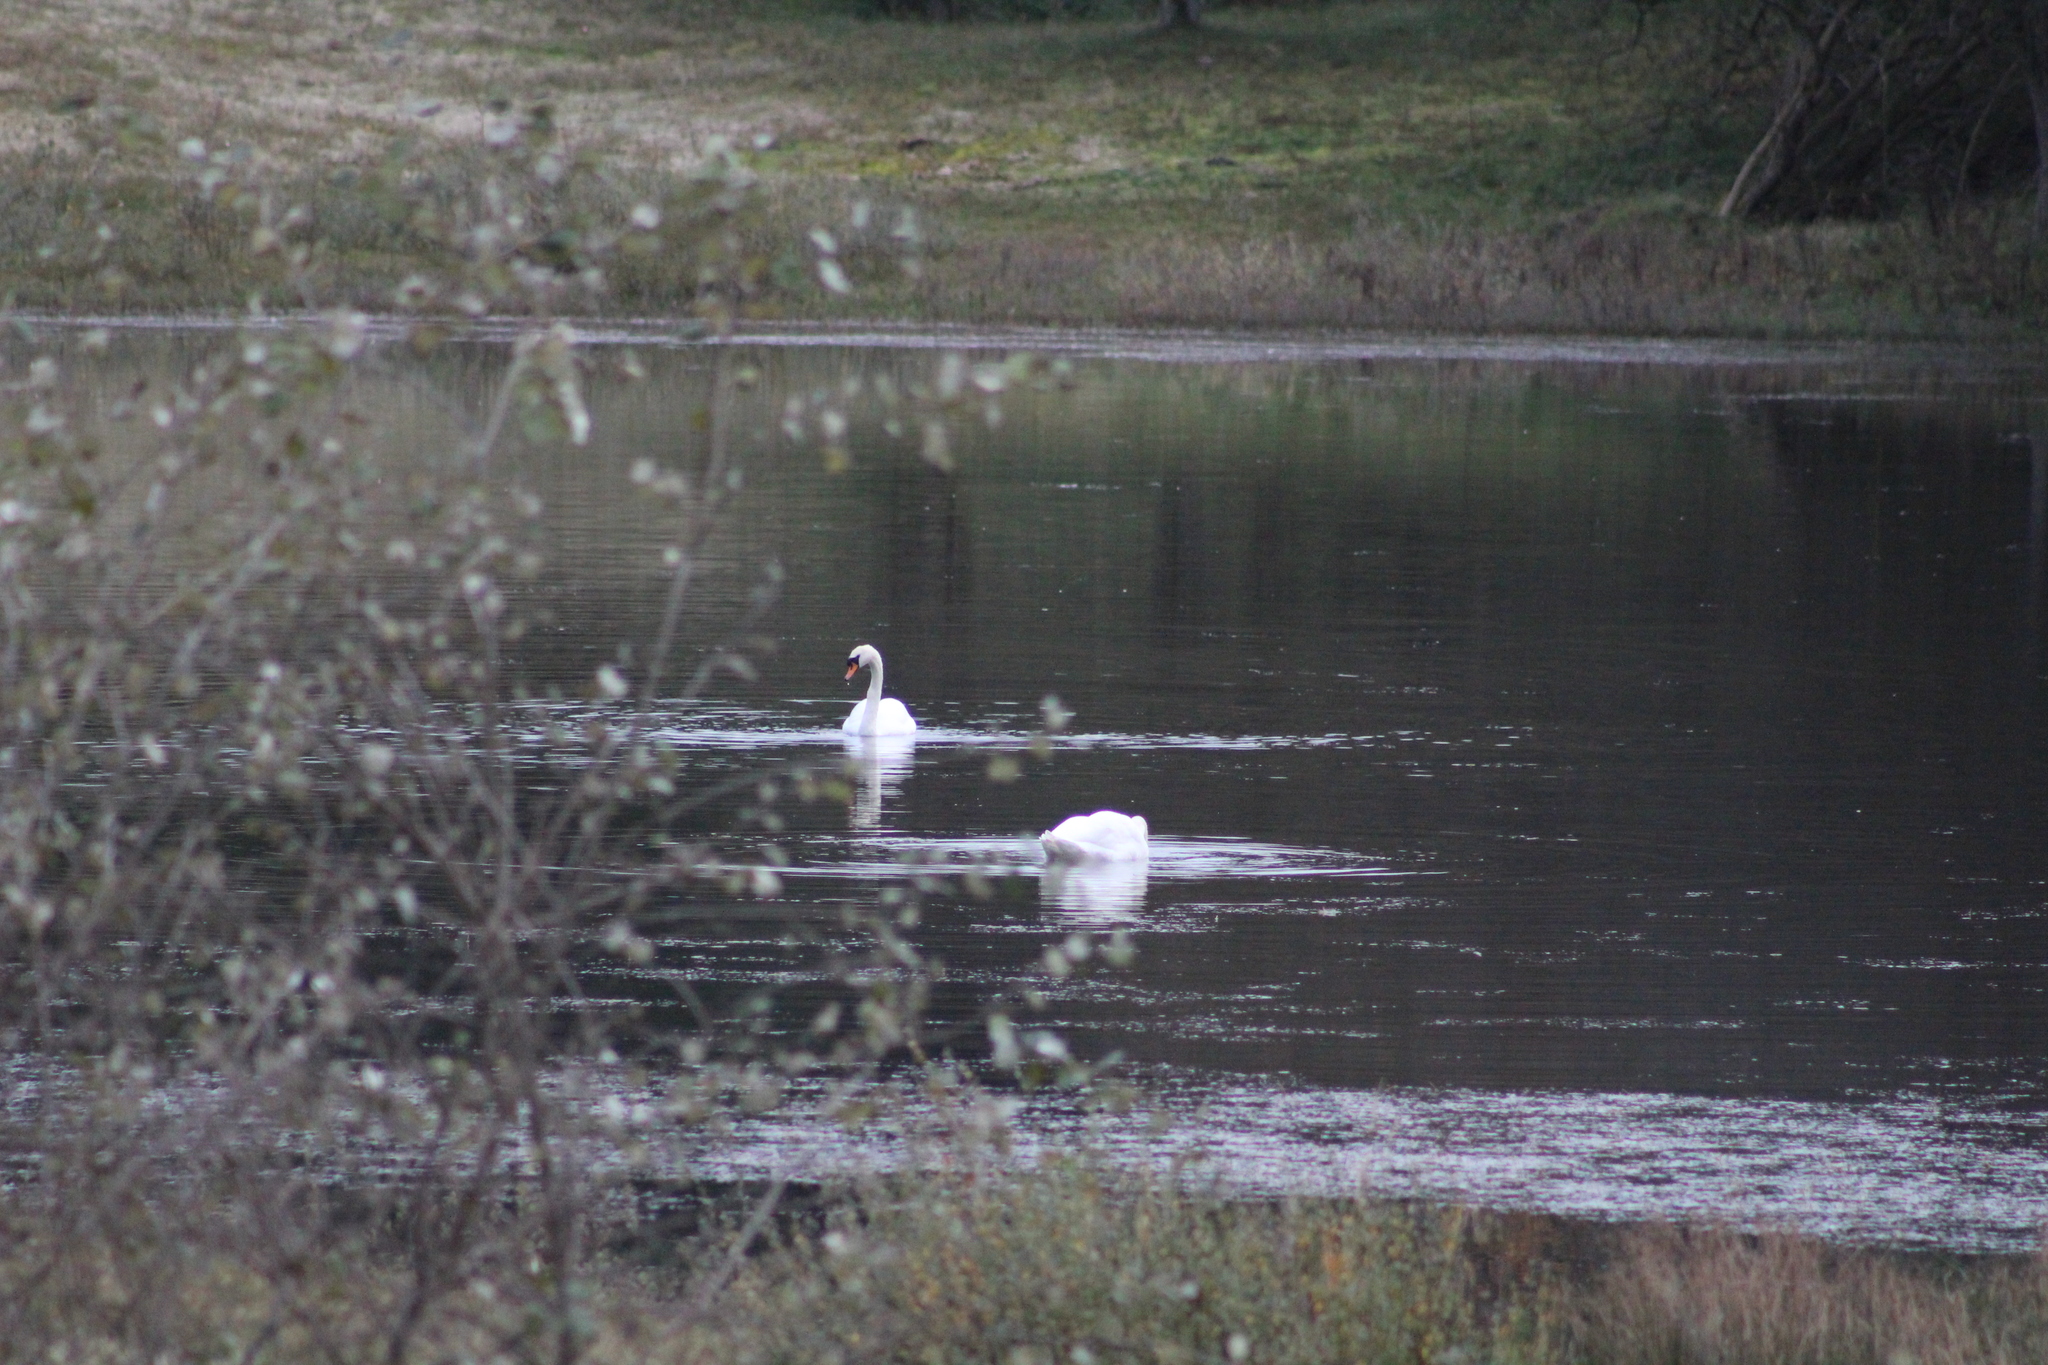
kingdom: Animalia
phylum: Chordata
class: Aves
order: Anseriformes
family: Anatidae
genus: Cygnus
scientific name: Cygnus olor
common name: Mute swan
